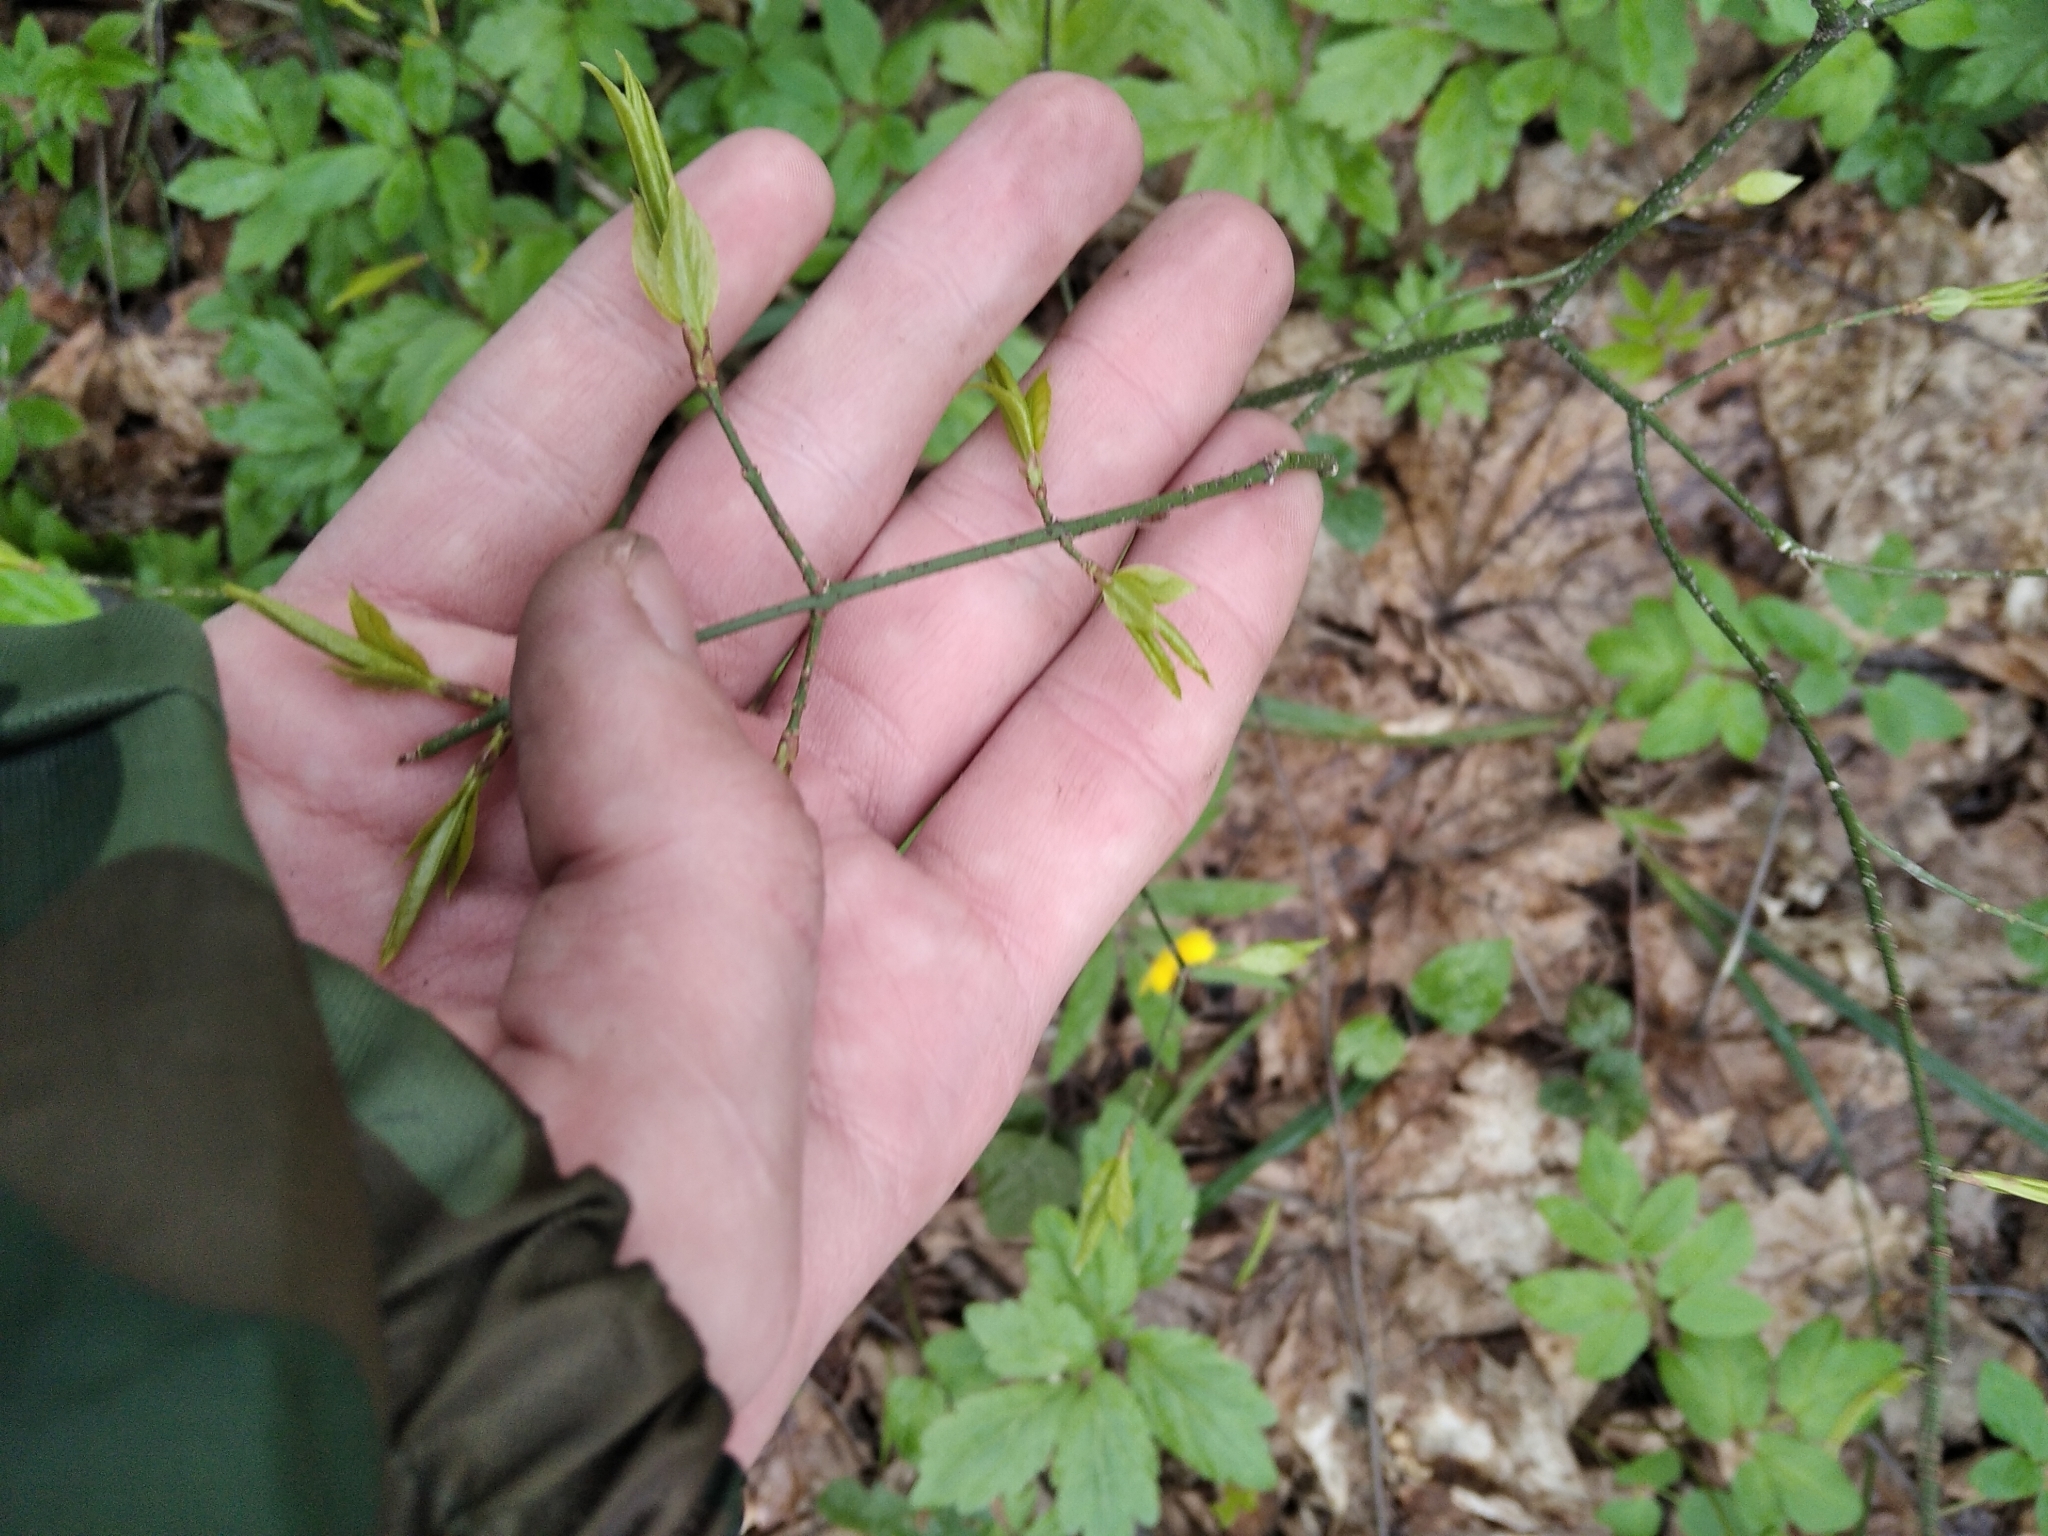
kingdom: Plantae
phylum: Tracheophyta
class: Magnoliopsida
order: Celastrales
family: Celastraceae
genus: Euonymus
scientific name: Euonymus verrucosus
